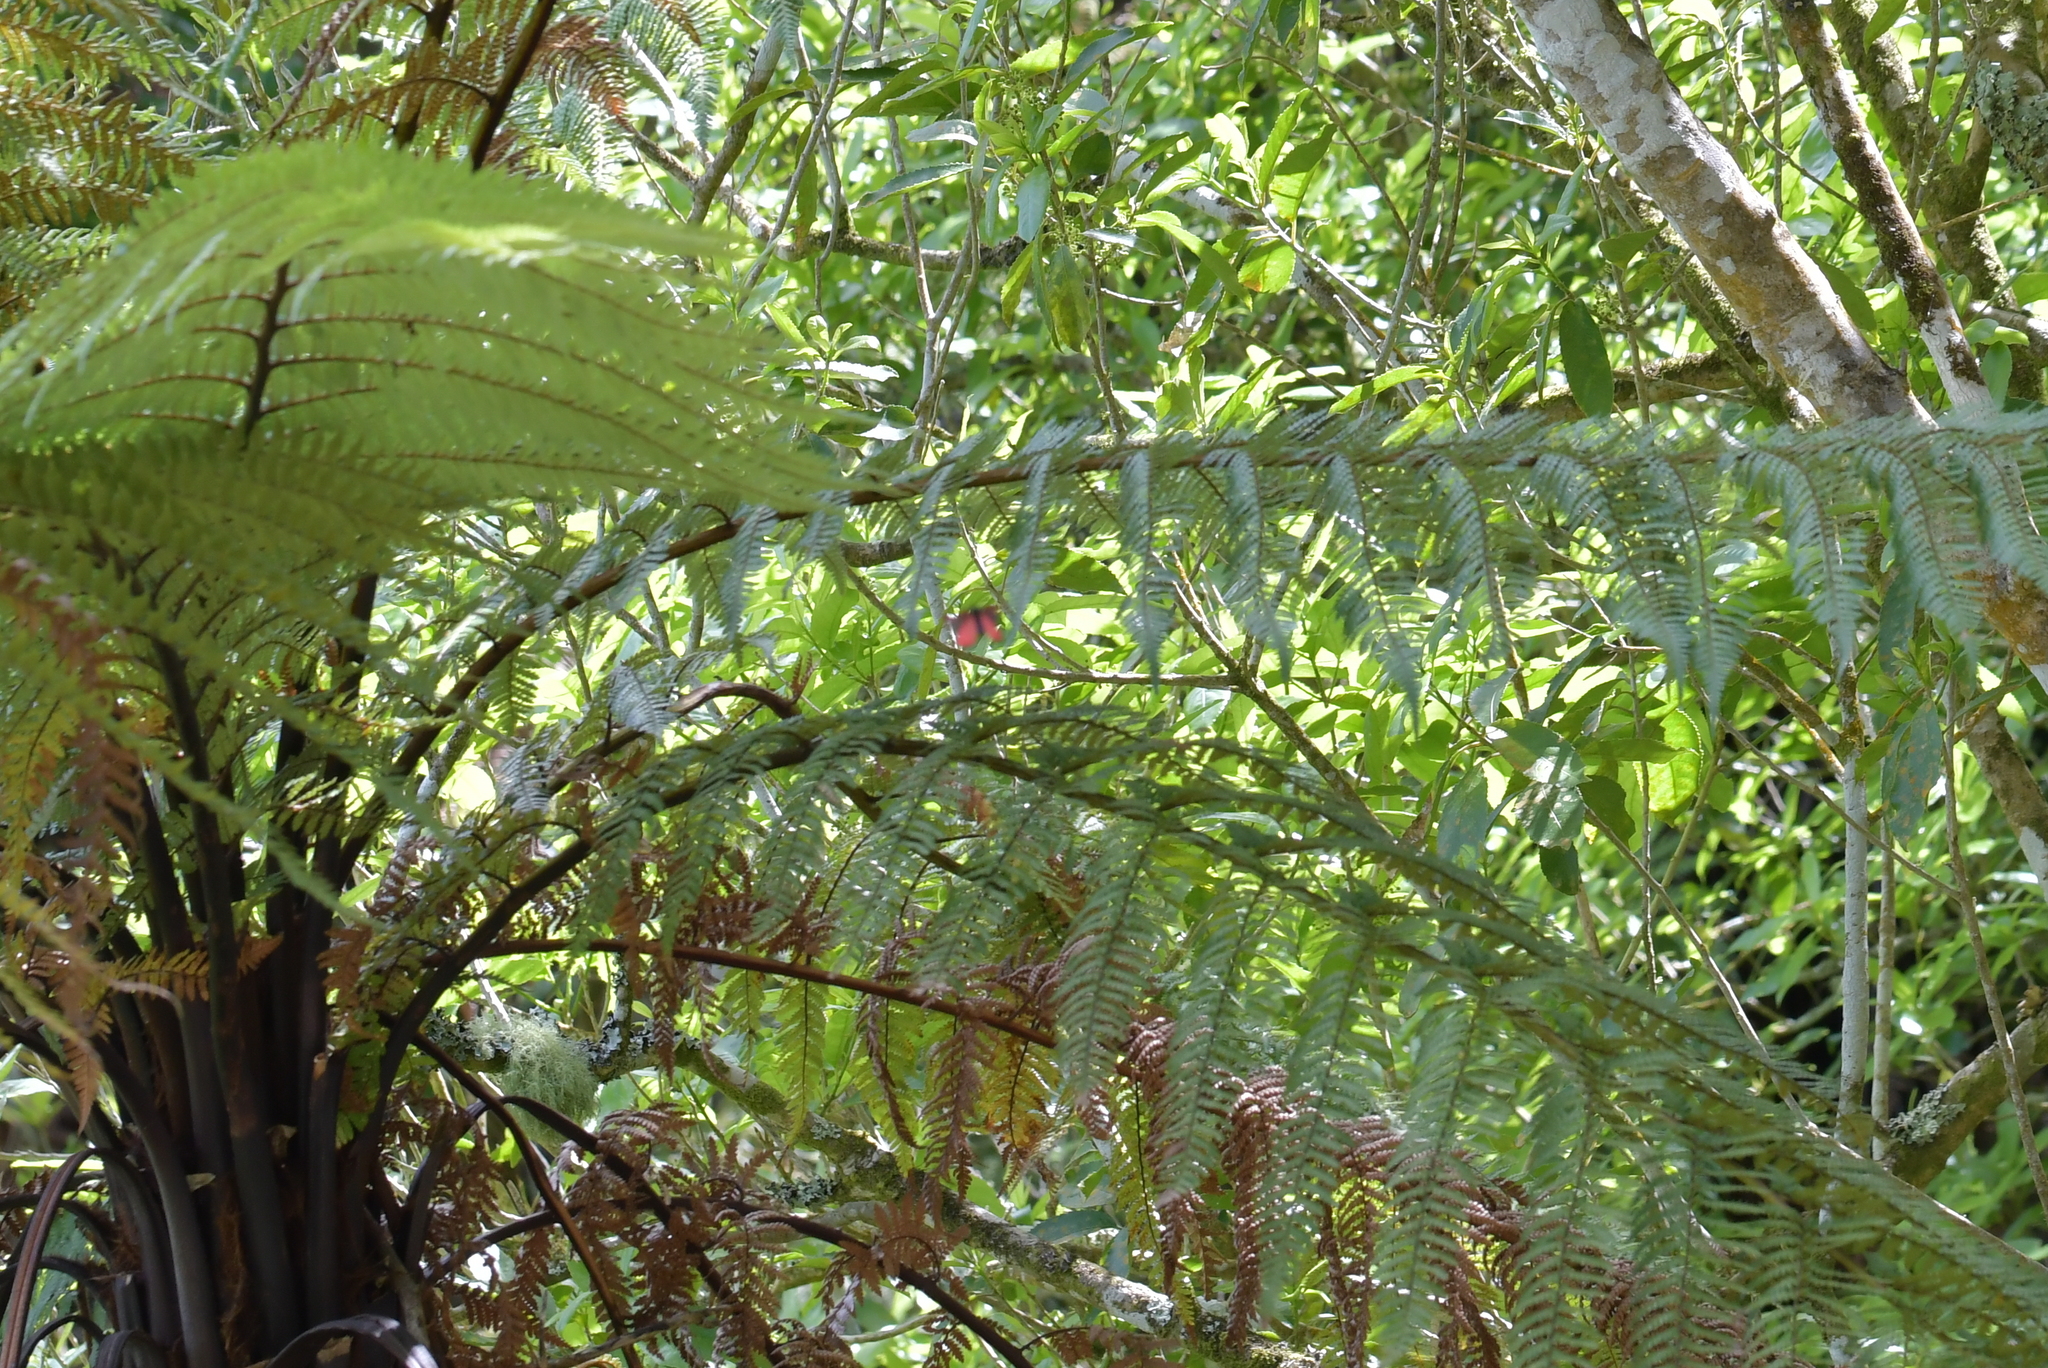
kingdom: Animalia
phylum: Arthropoda
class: Insecta
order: Lepidoptera
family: Erebidae
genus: Tyria
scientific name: Tyria jacobaeae
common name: Cinnabar
